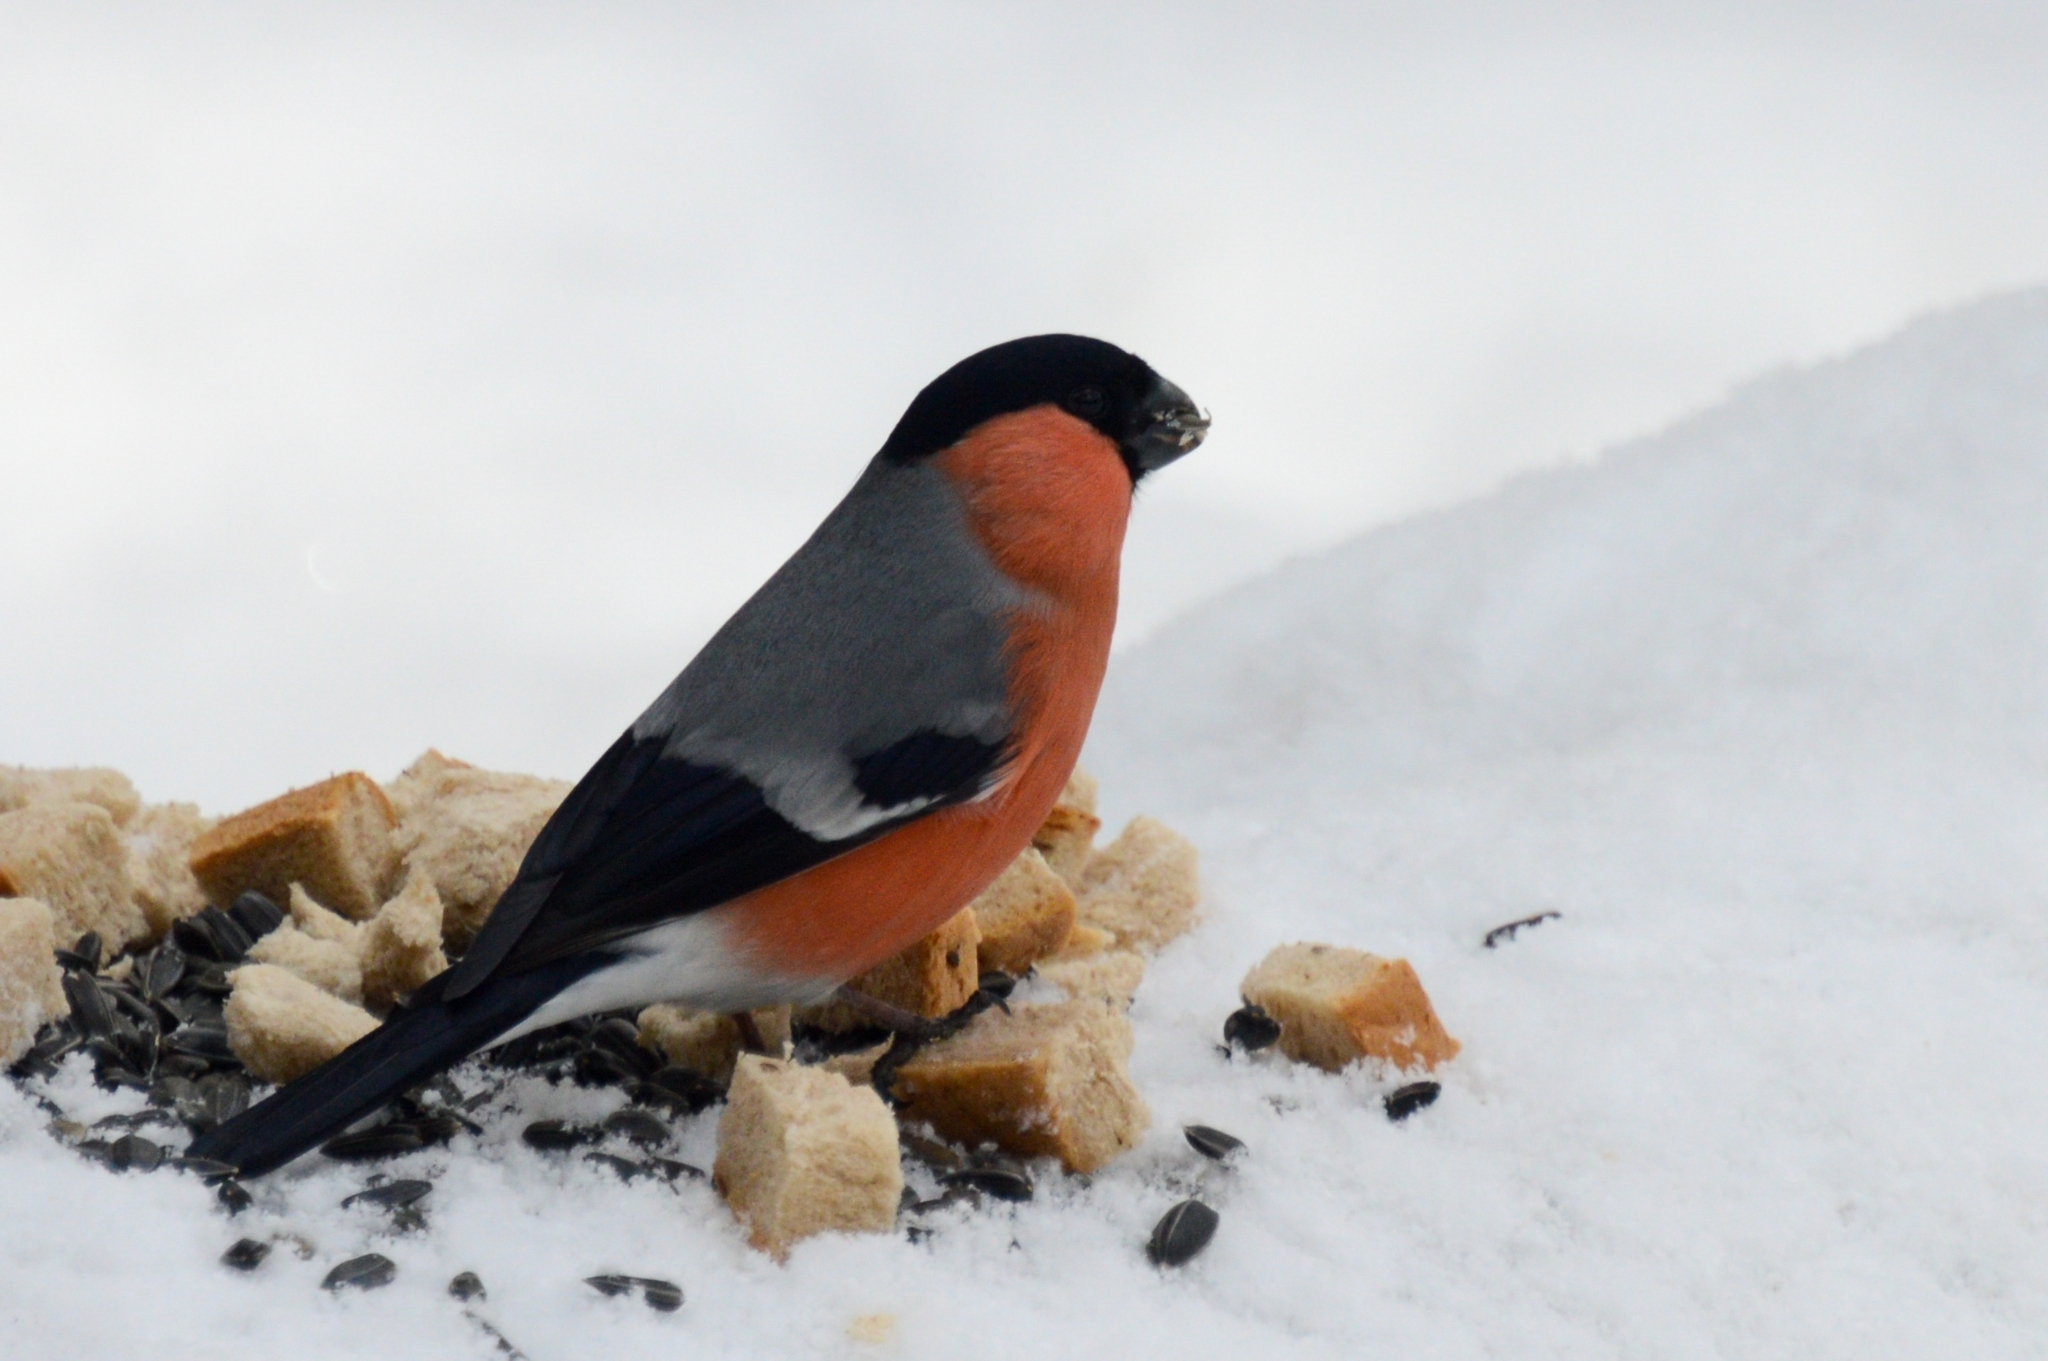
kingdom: Animalia
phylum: Chordata
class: Aves
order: Passeriformes
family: Fringillidae
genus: Pyrrhula
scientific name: Pyrrhula pyrrhula
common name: Eurasian bullfinch
